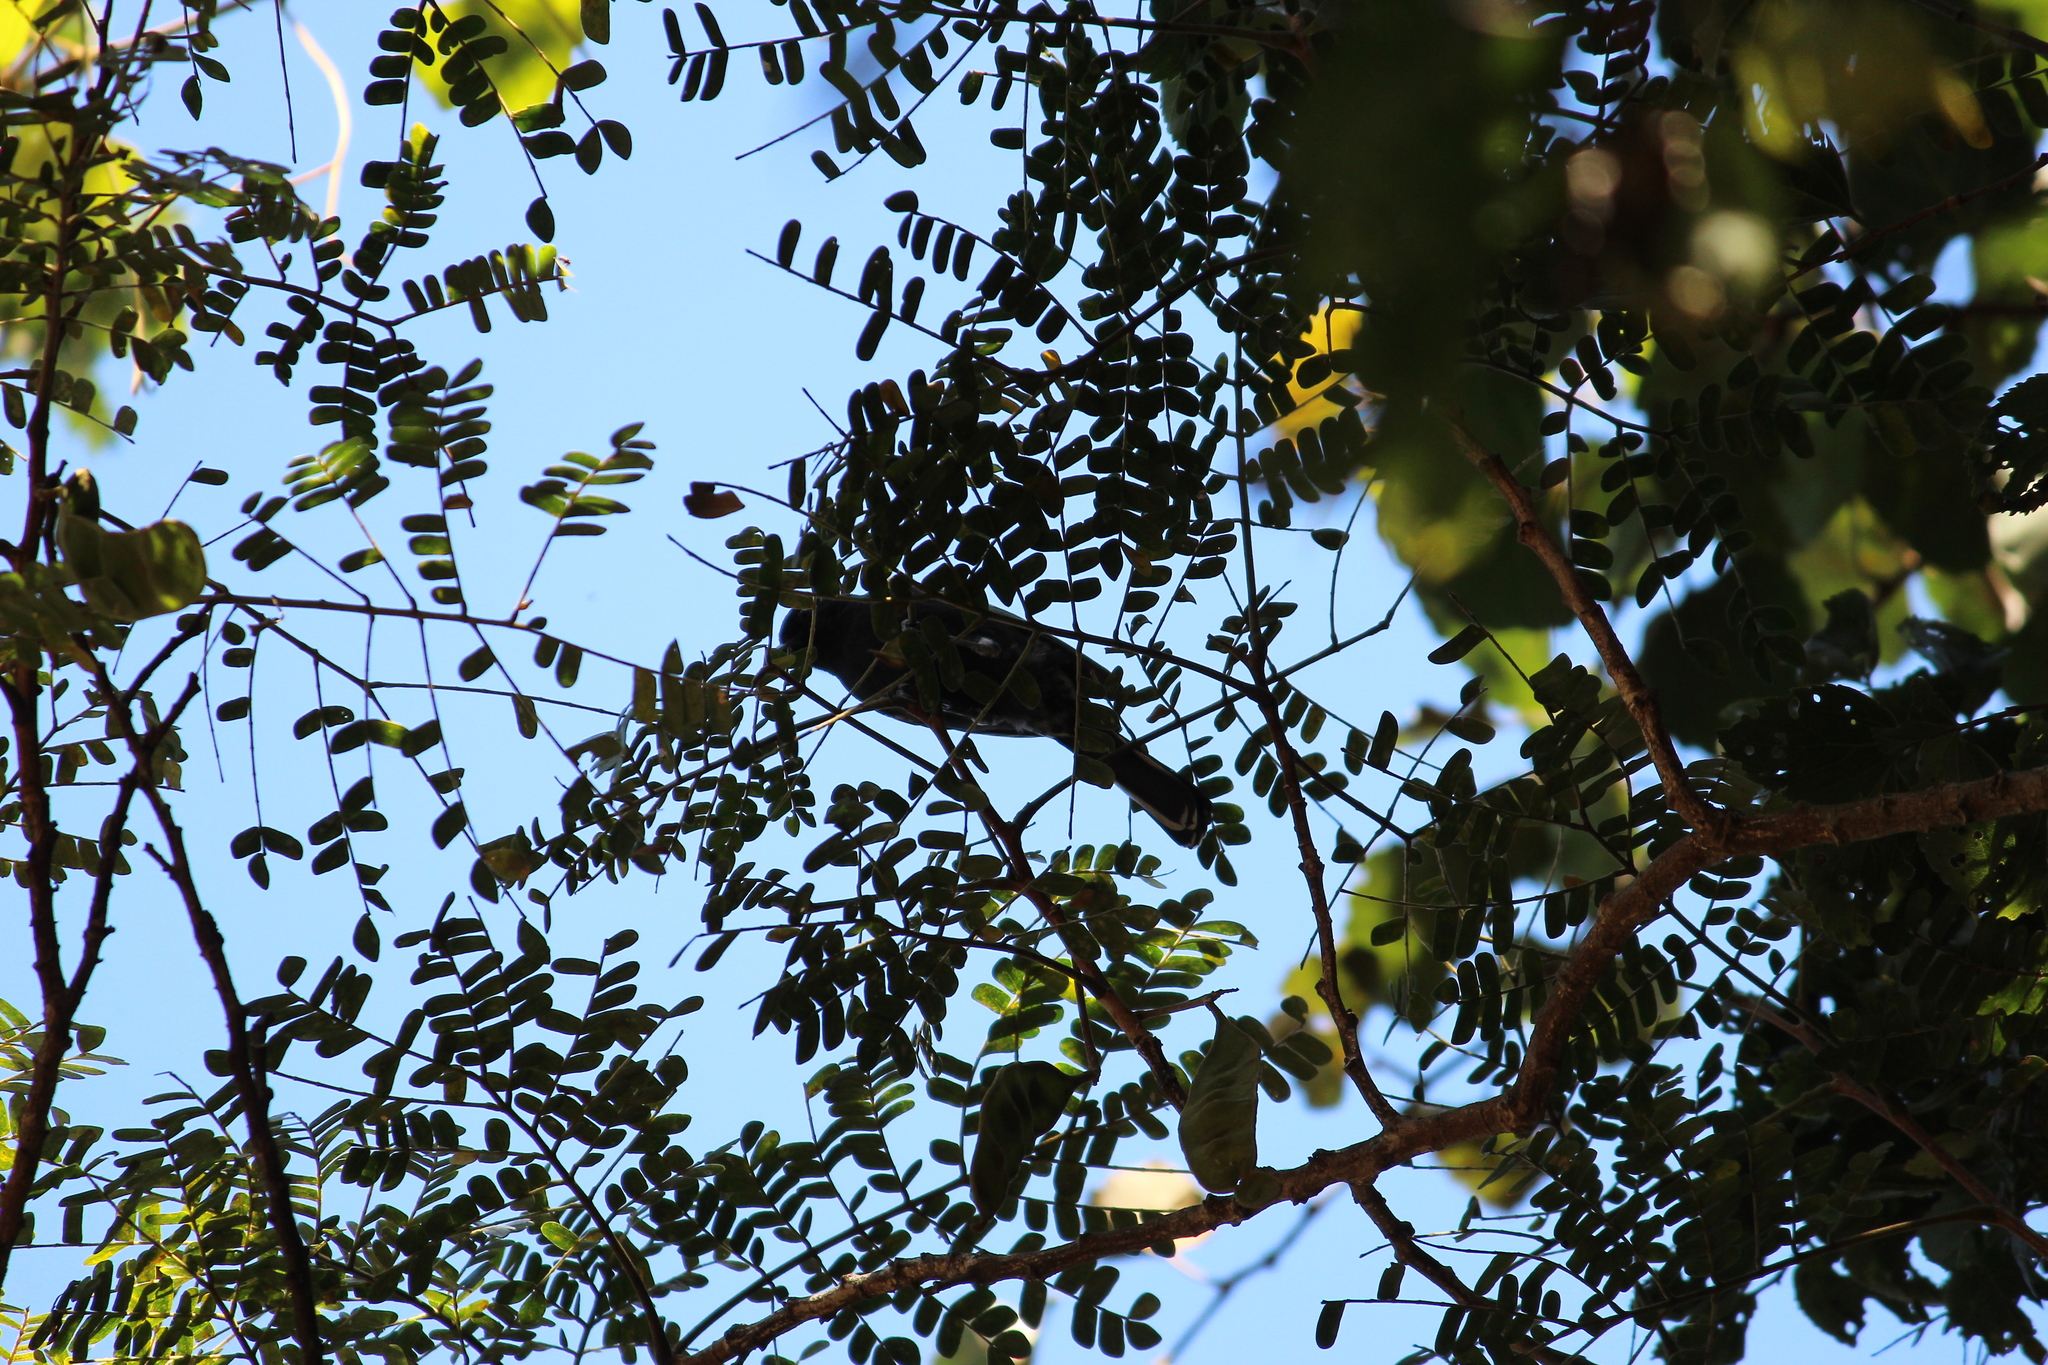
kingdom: Animalia
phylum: Chordata
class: Aves
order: Passeriformes
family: Paridae
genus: Parus
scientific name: Parus niger
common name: Southern black tit
